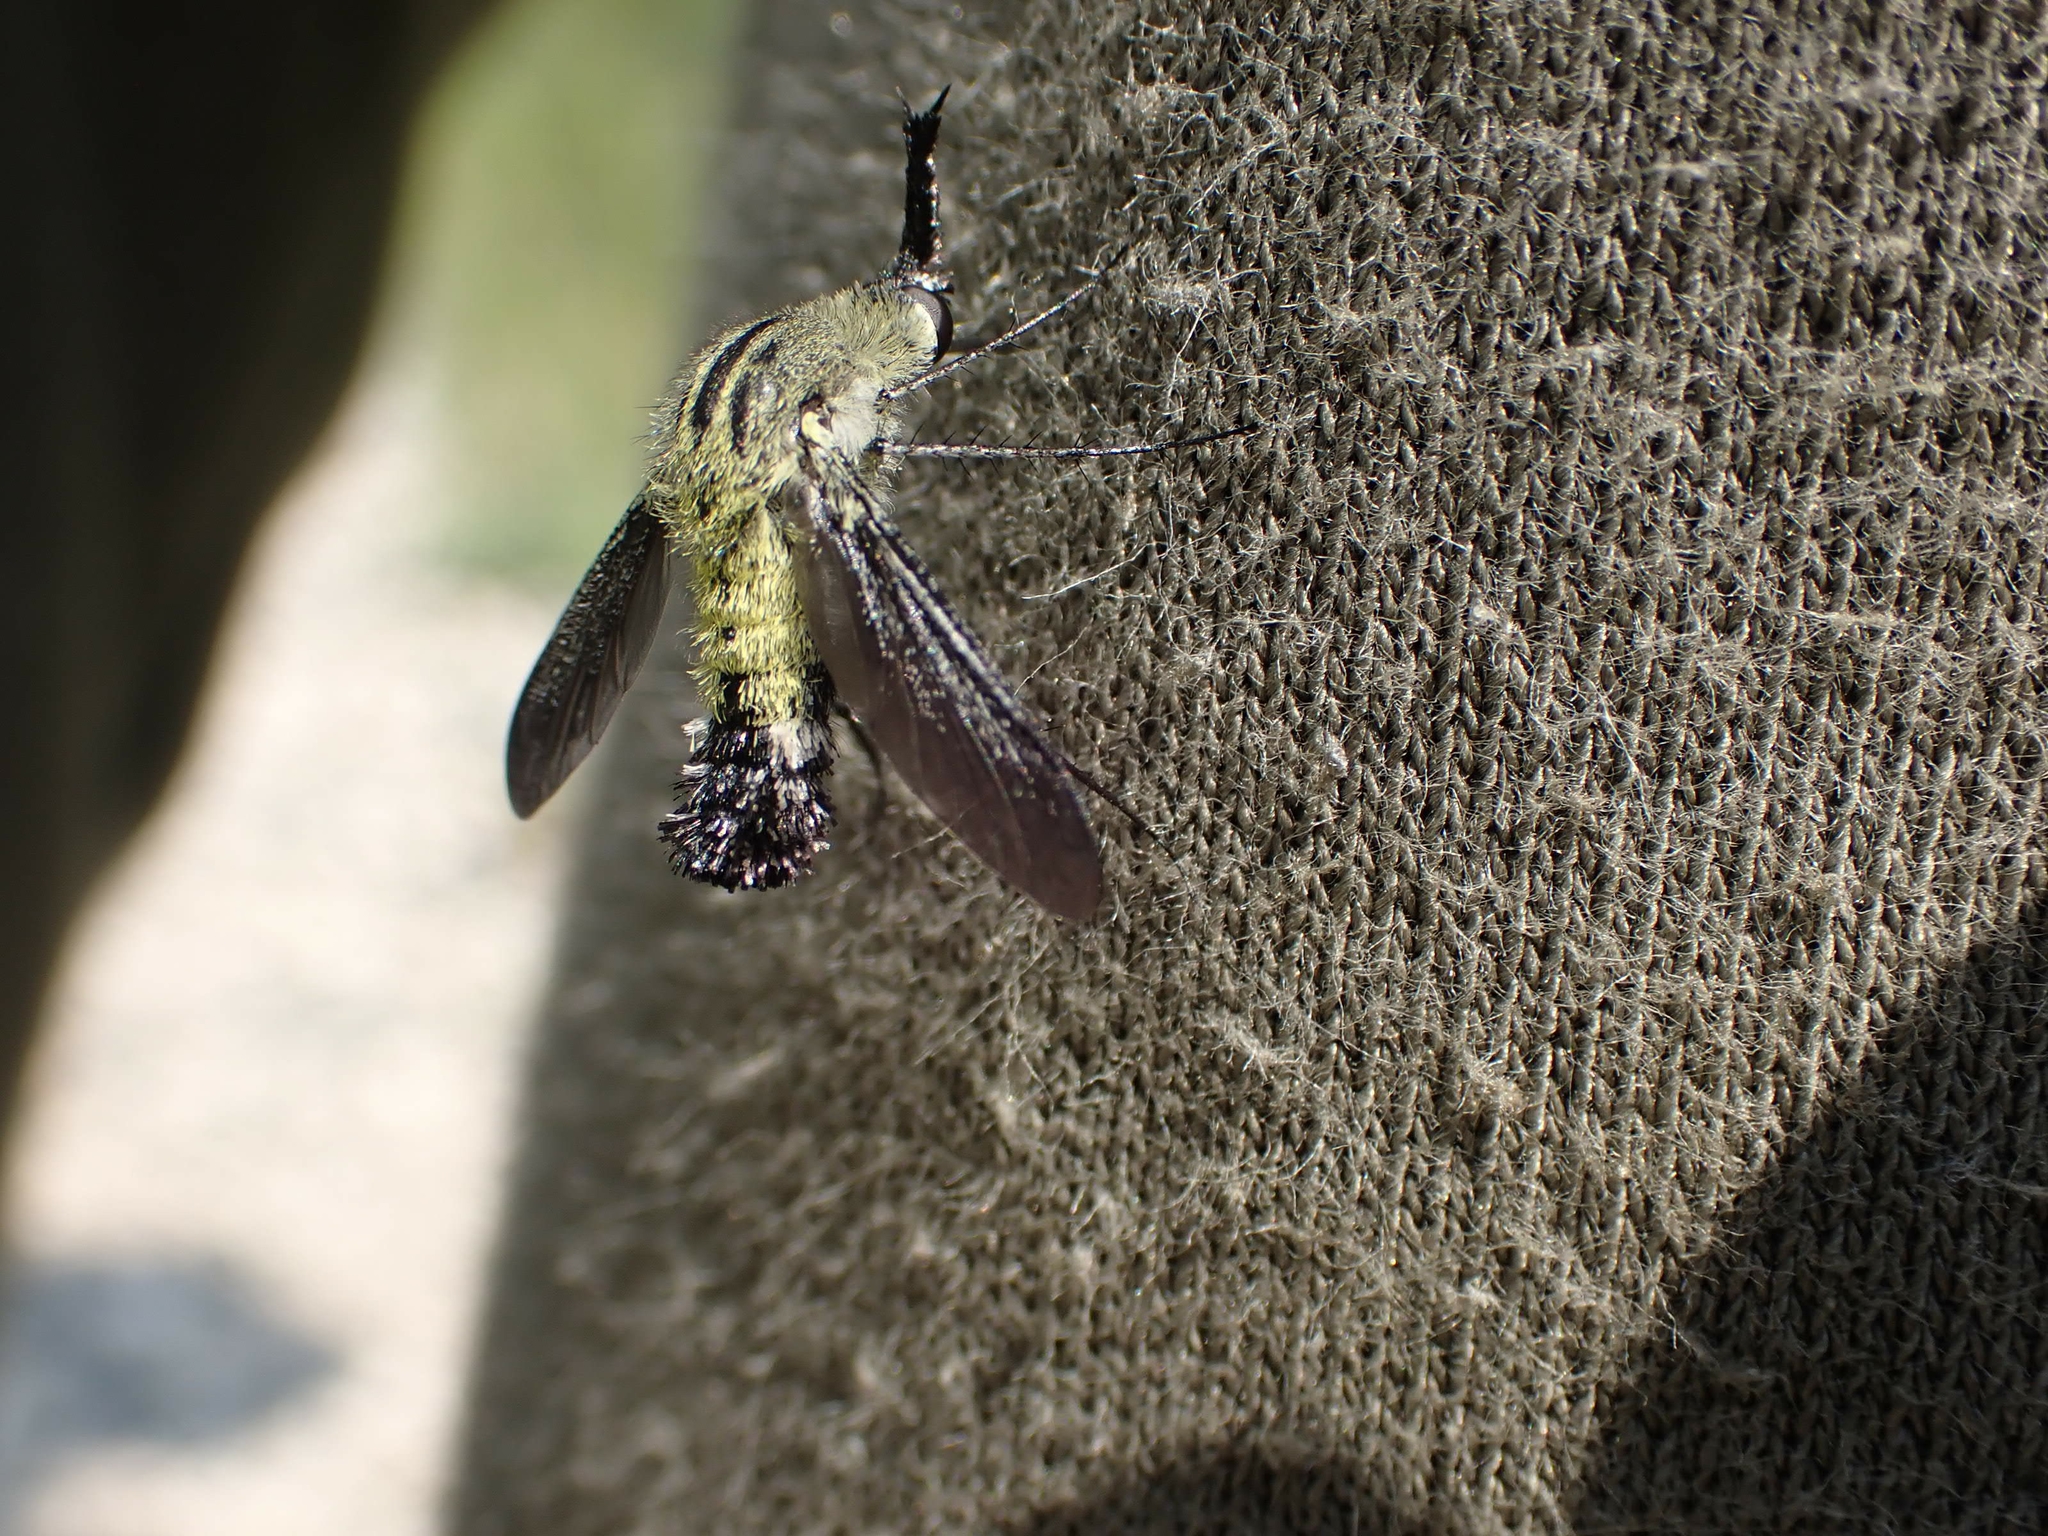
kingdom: Animalia
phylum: Arthropoda
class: Insecta
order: Diptera
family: Bombyliidae
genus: Lepidophora
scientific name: Lepidophora lutea
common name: Hunchback bee fly
